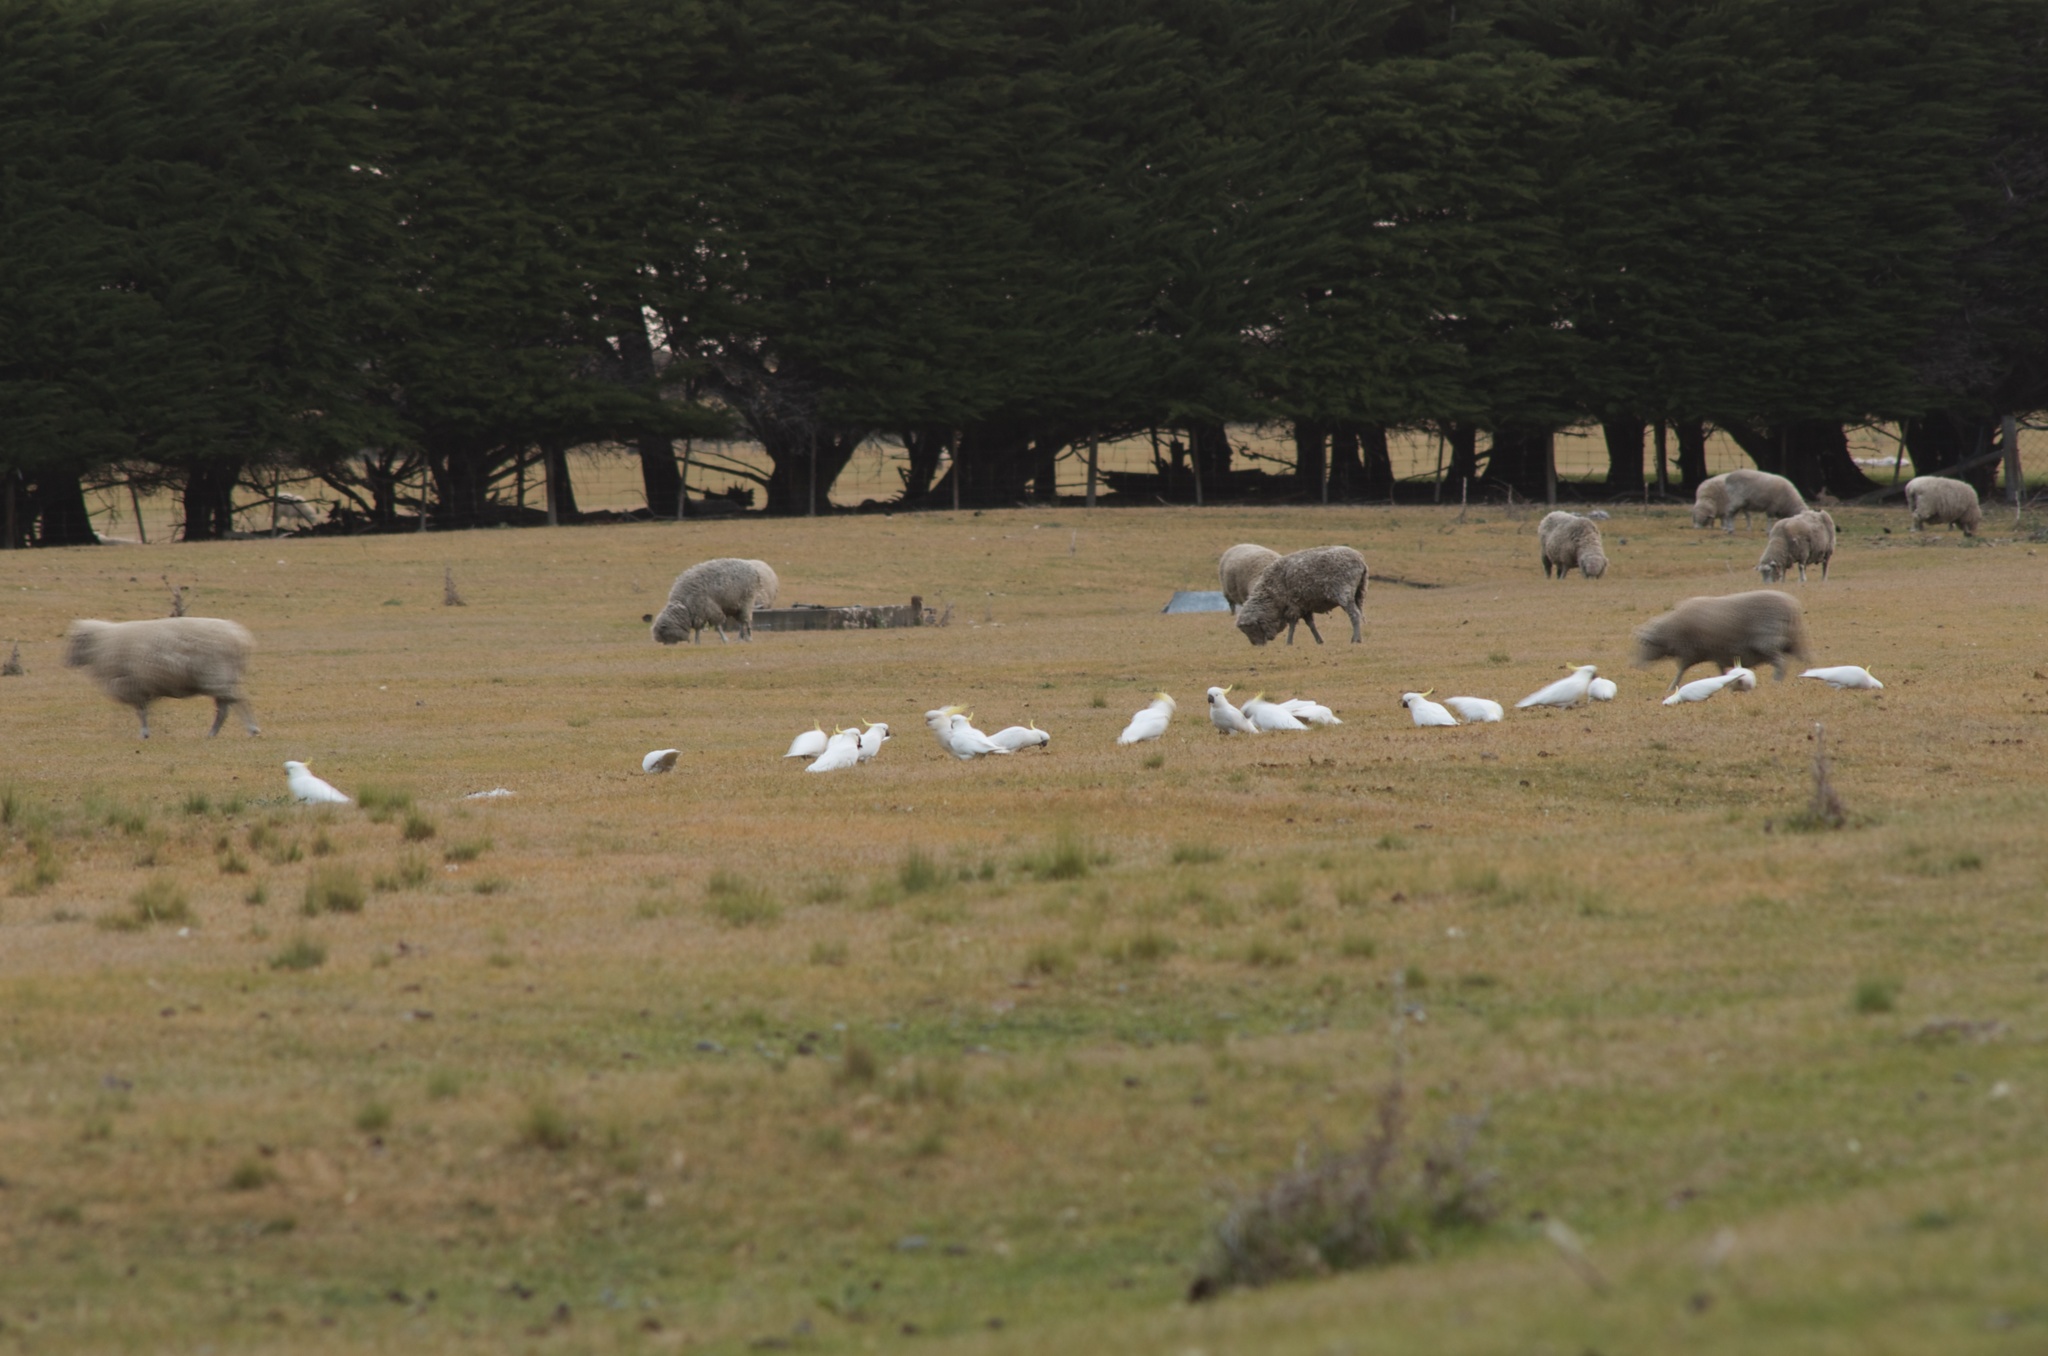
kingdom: Animalia
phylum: Chordata
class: Aves
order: Psittaciformes
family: Psittacidae
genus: Cacatua
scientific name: Cacatua galerita
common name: Sulphur-crested cockatoo
